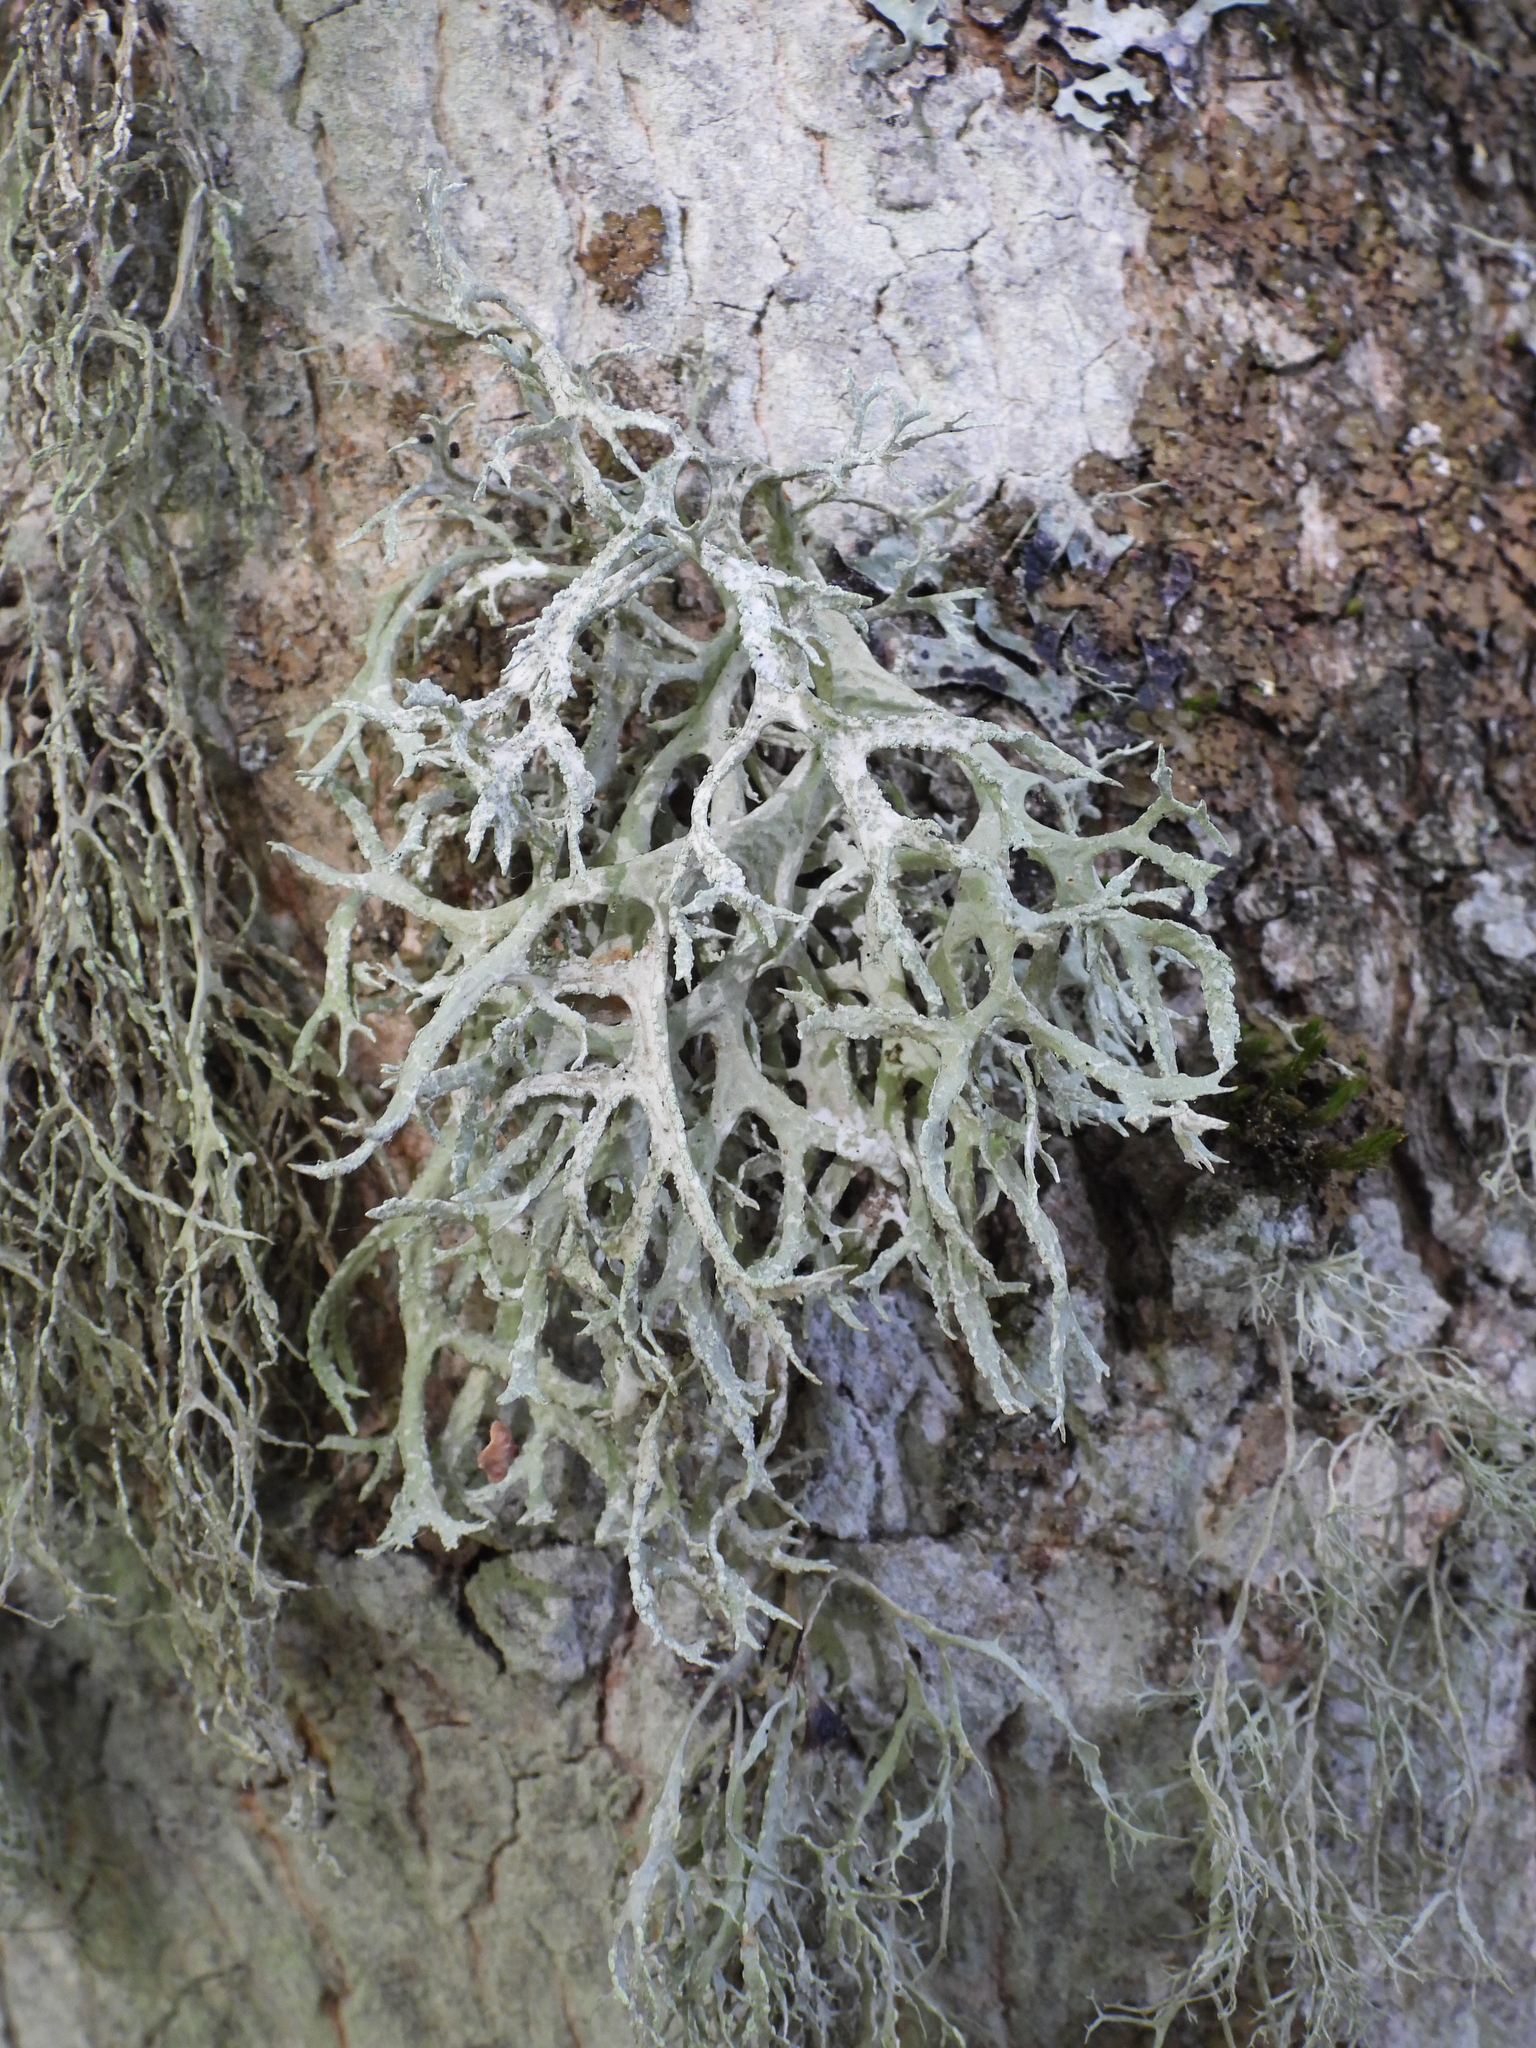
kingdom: Fungi
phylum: Ascomycota
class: Lecanoromycetes
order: Lecanorales
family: Parmeliaceae
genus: Evernia
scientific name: Evernia prunastri
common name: Oak moss
